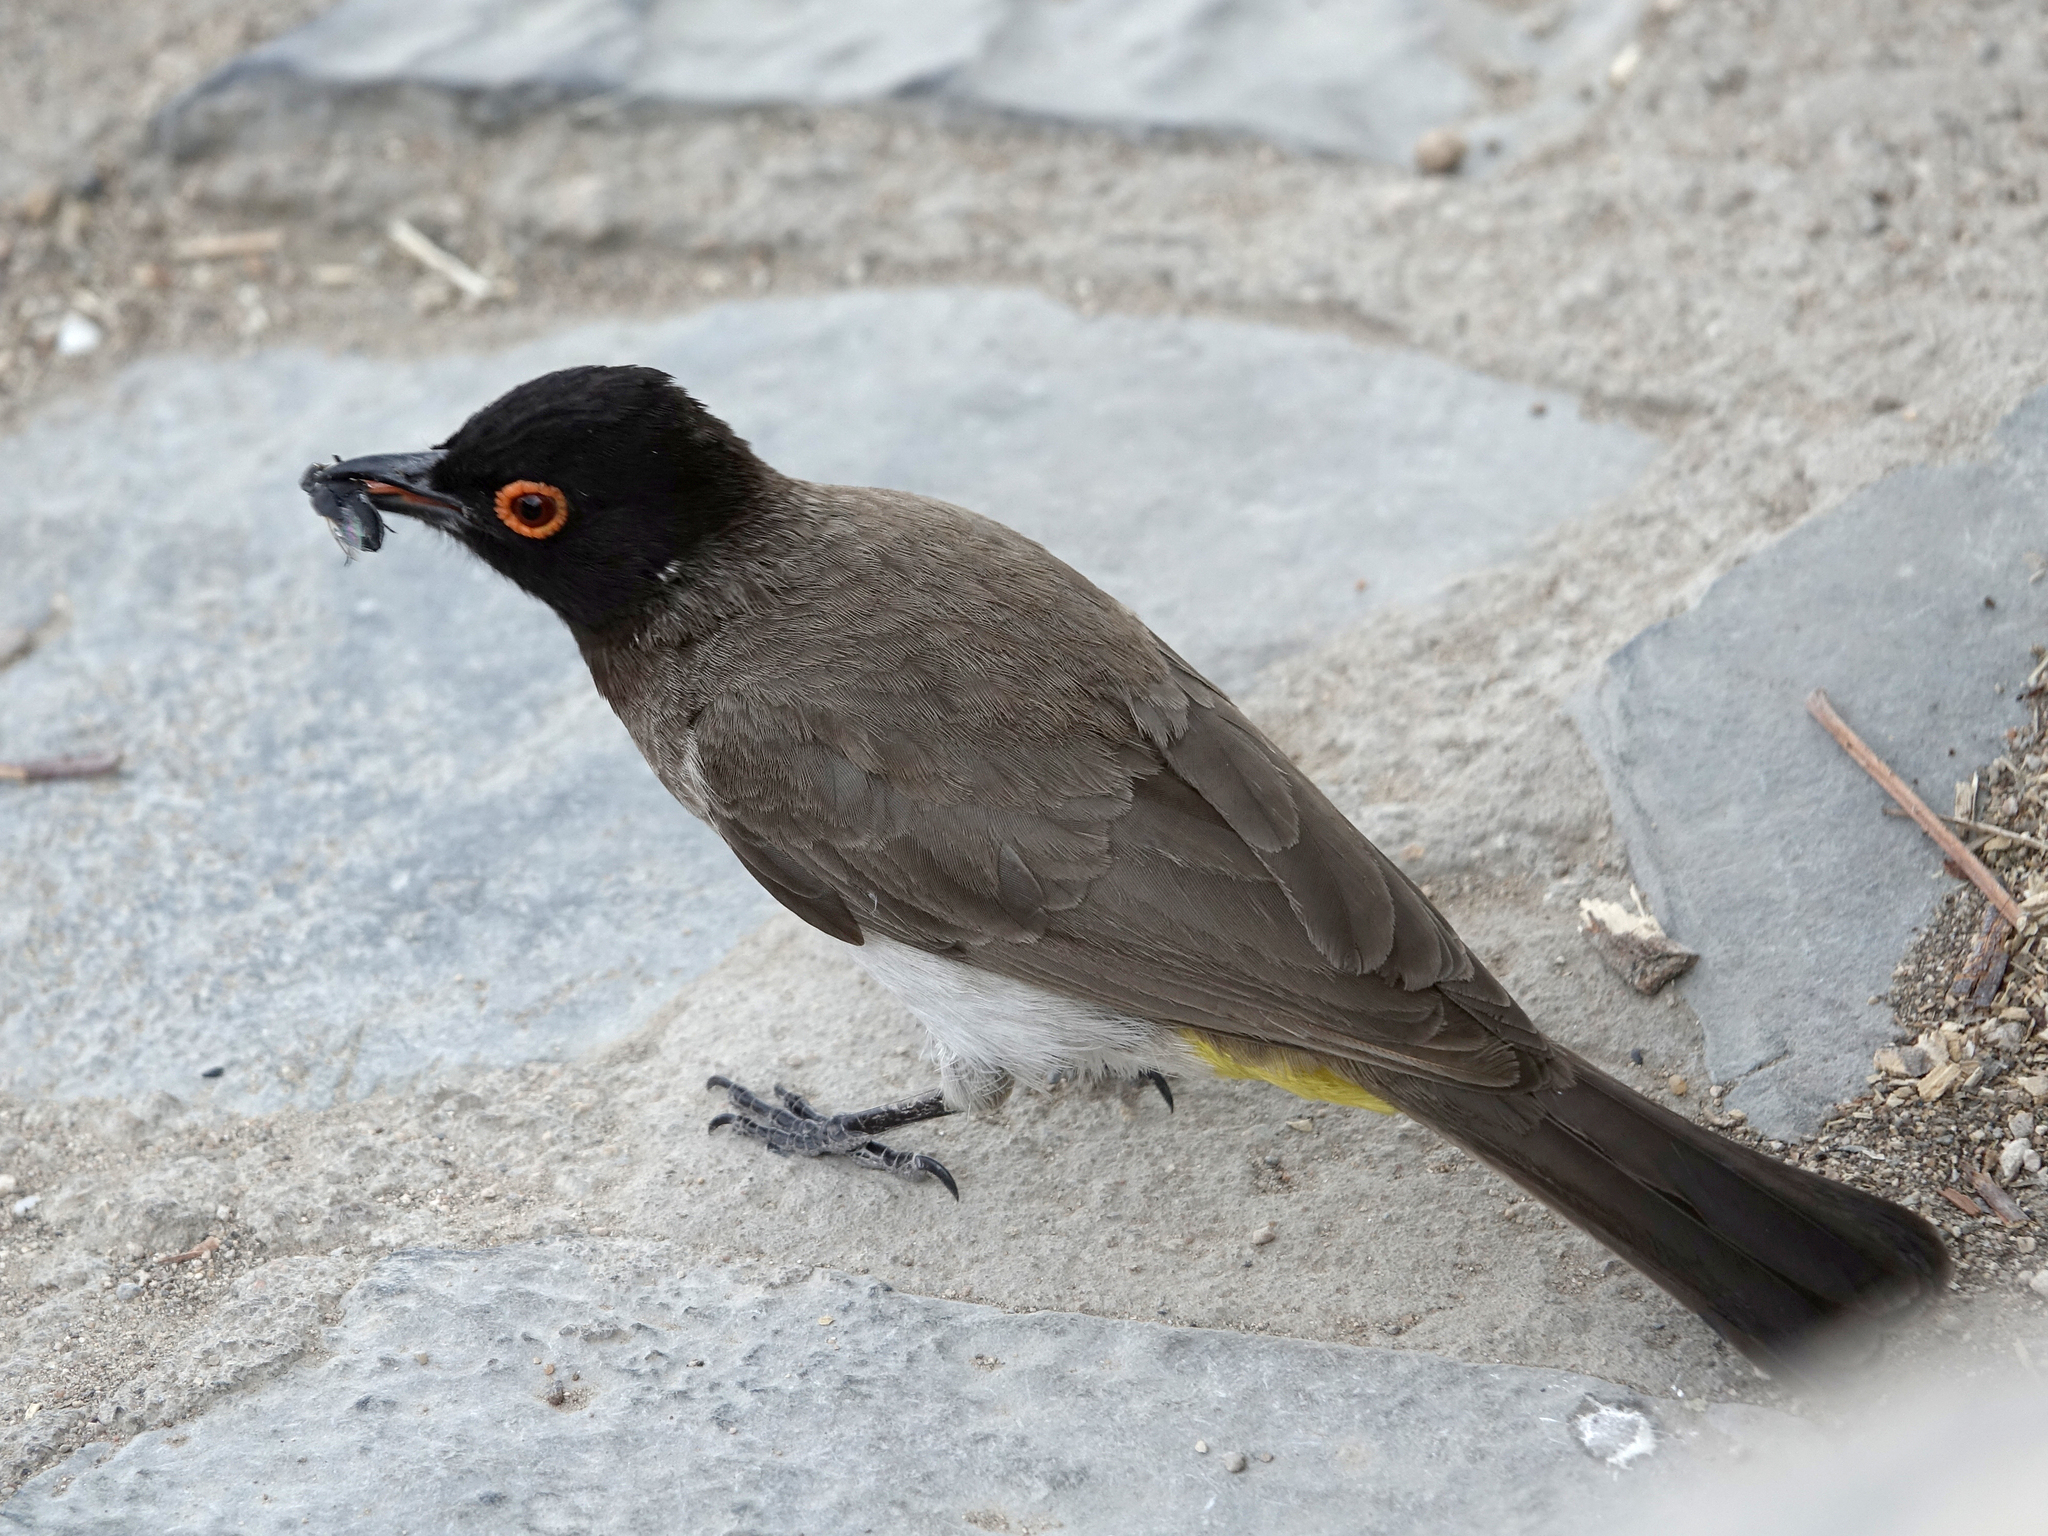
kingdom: Animalia
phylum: Chordata
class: Aves
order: Passeriformes
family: Pycnonotidae
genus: Pycnonotus
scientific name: Pycnonotus nigricans
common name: African red-eyed bulbul
